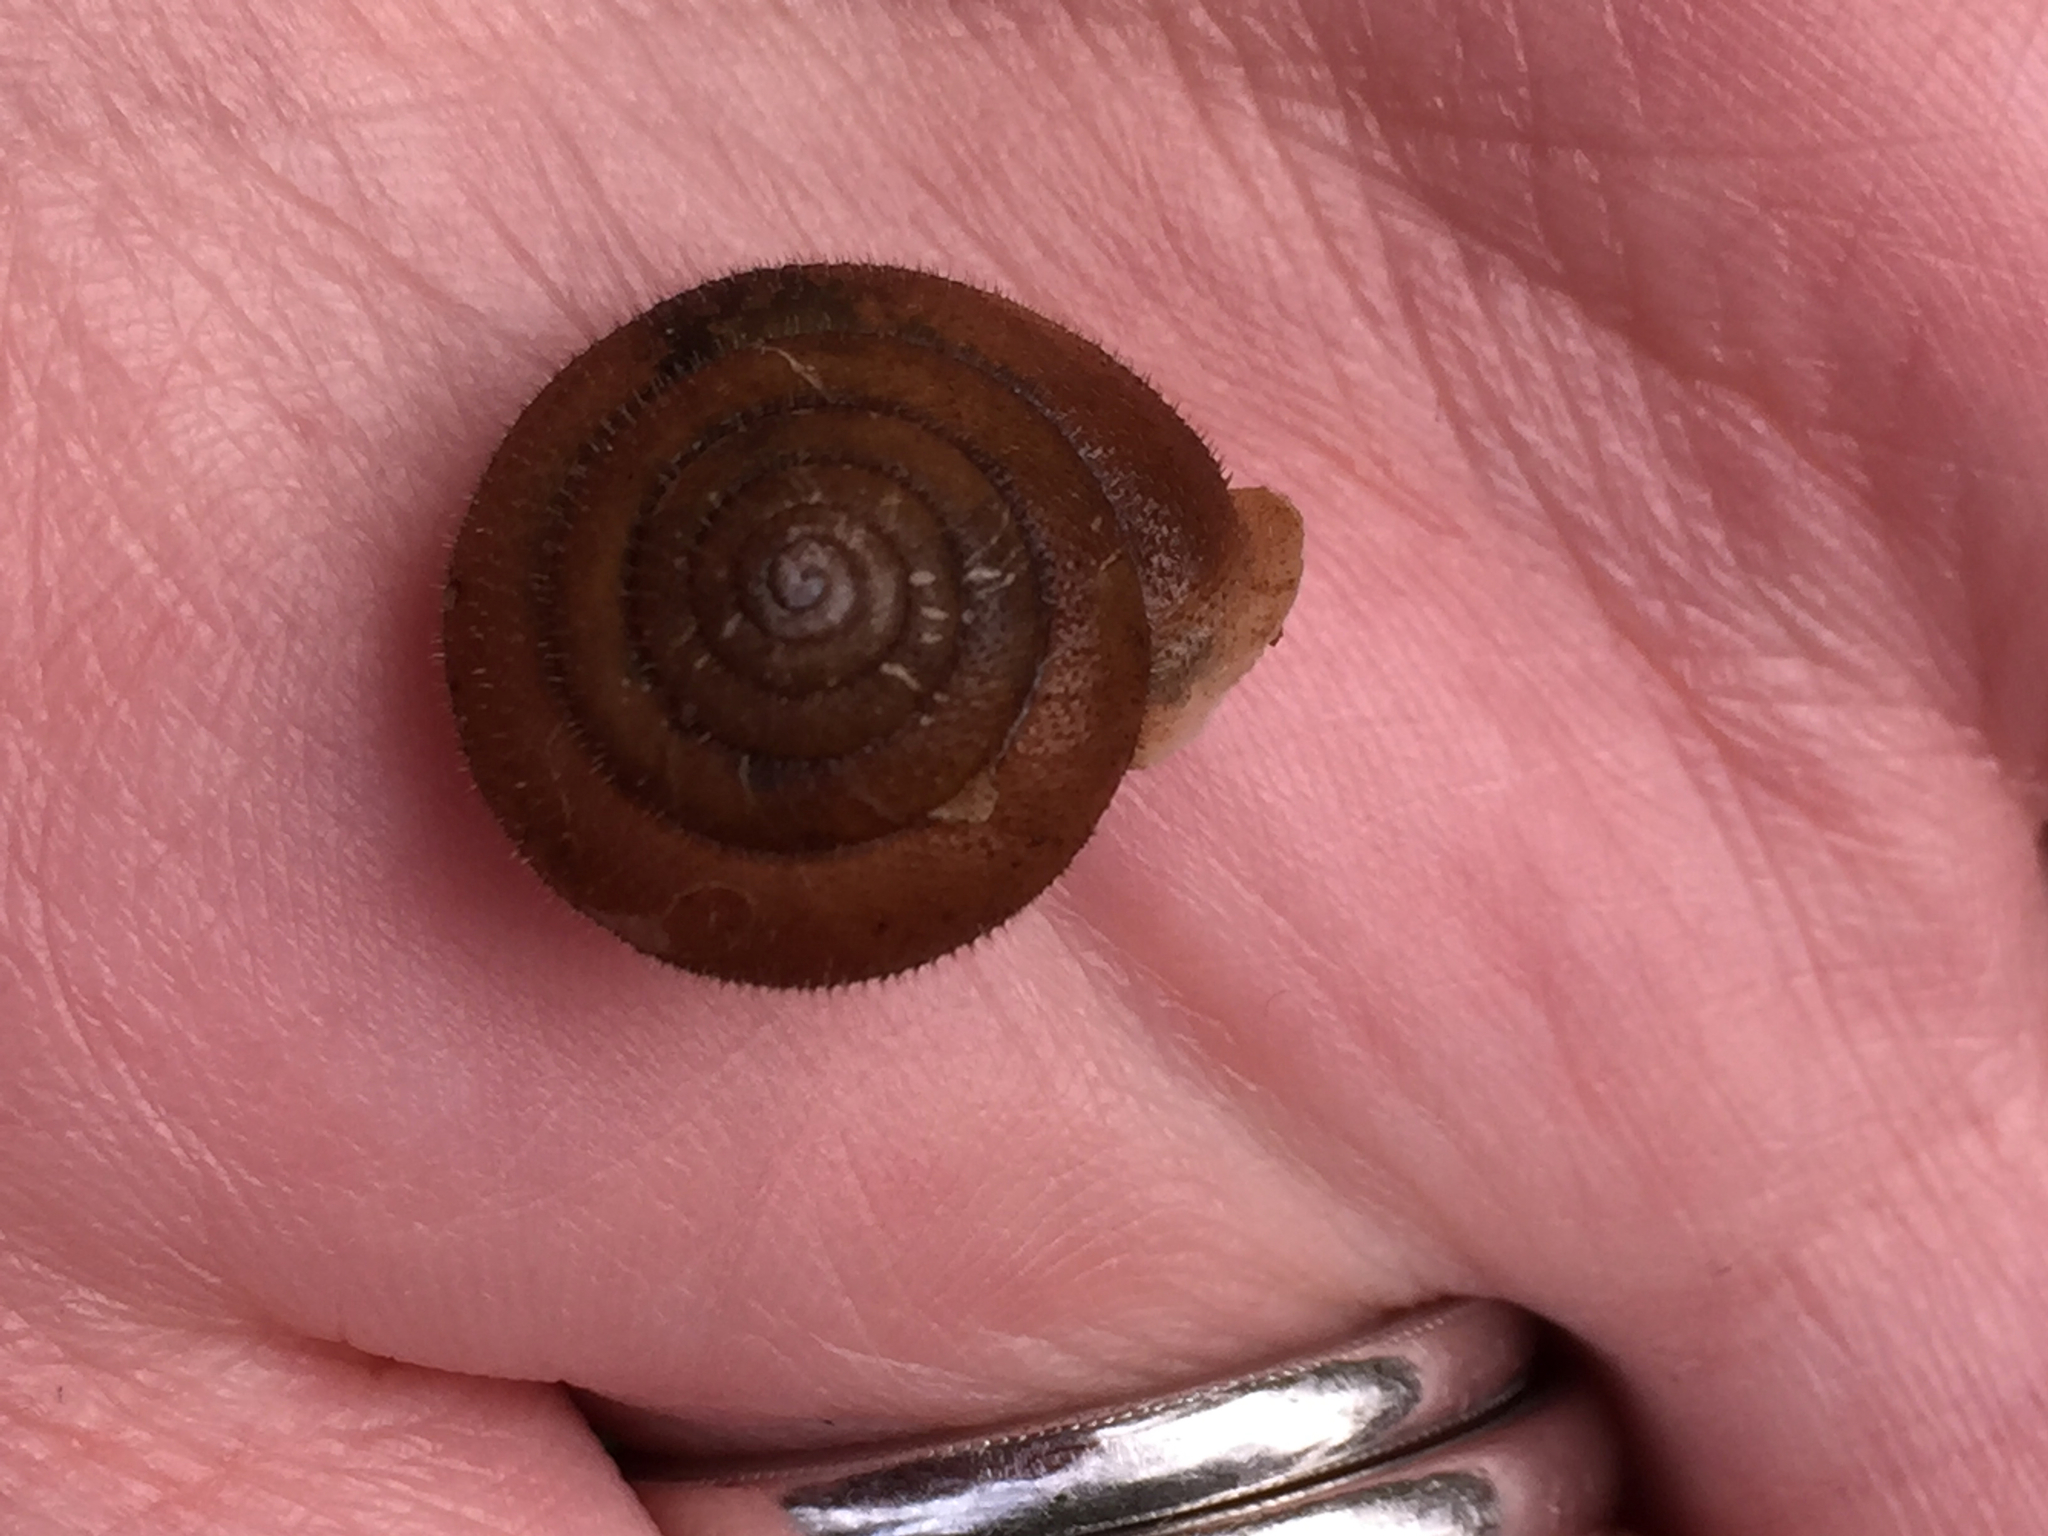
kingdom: Animalia
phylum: Mollusca
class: Gastropoda
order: Stylommatophora
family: Polygyridae
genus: Vespericola
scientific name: Vespericola columbianus
